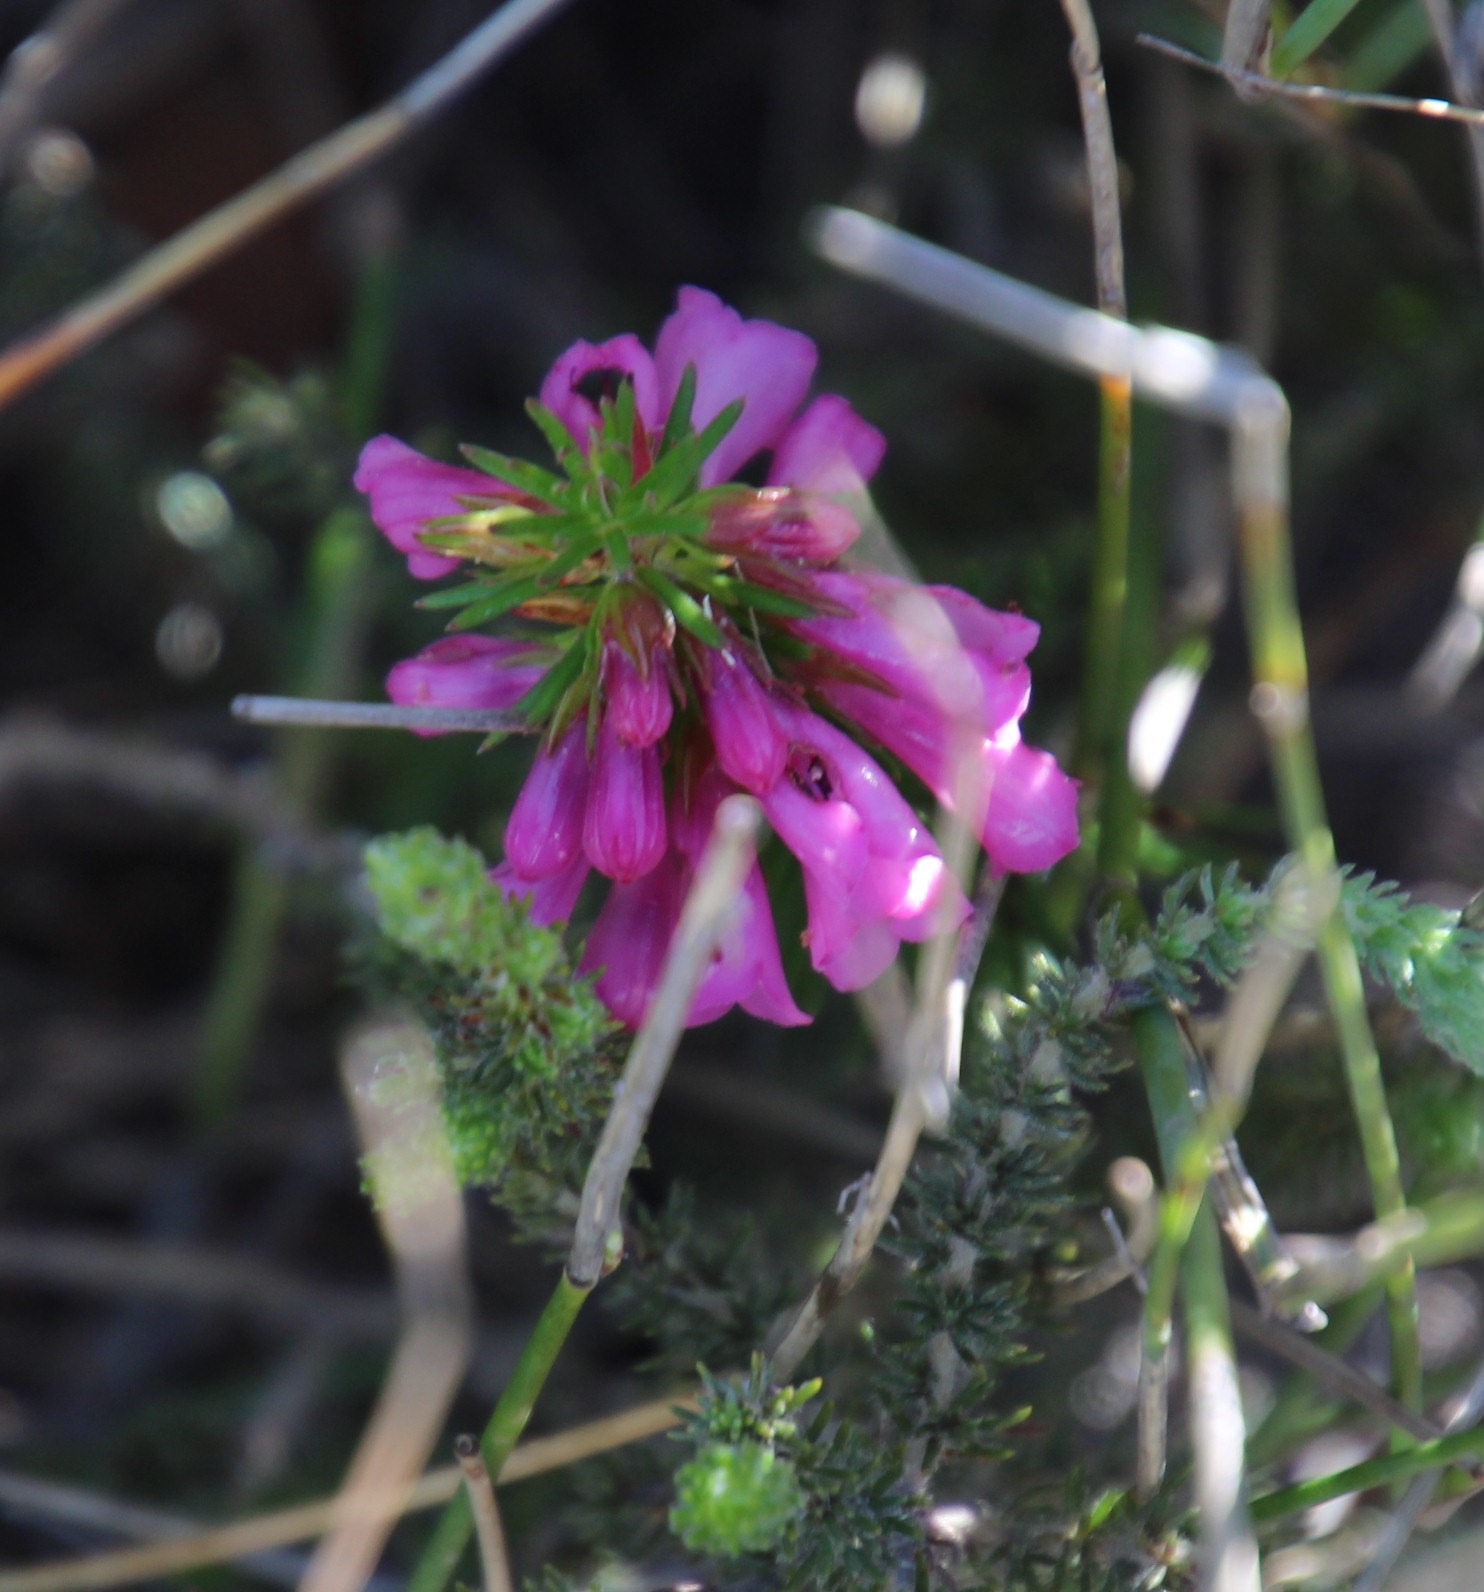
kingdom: Plantae
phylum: Tracheophyta
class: Magnoliopsida
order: Ericales
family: Ericaceae
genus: Erica
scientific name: Erica abietina
